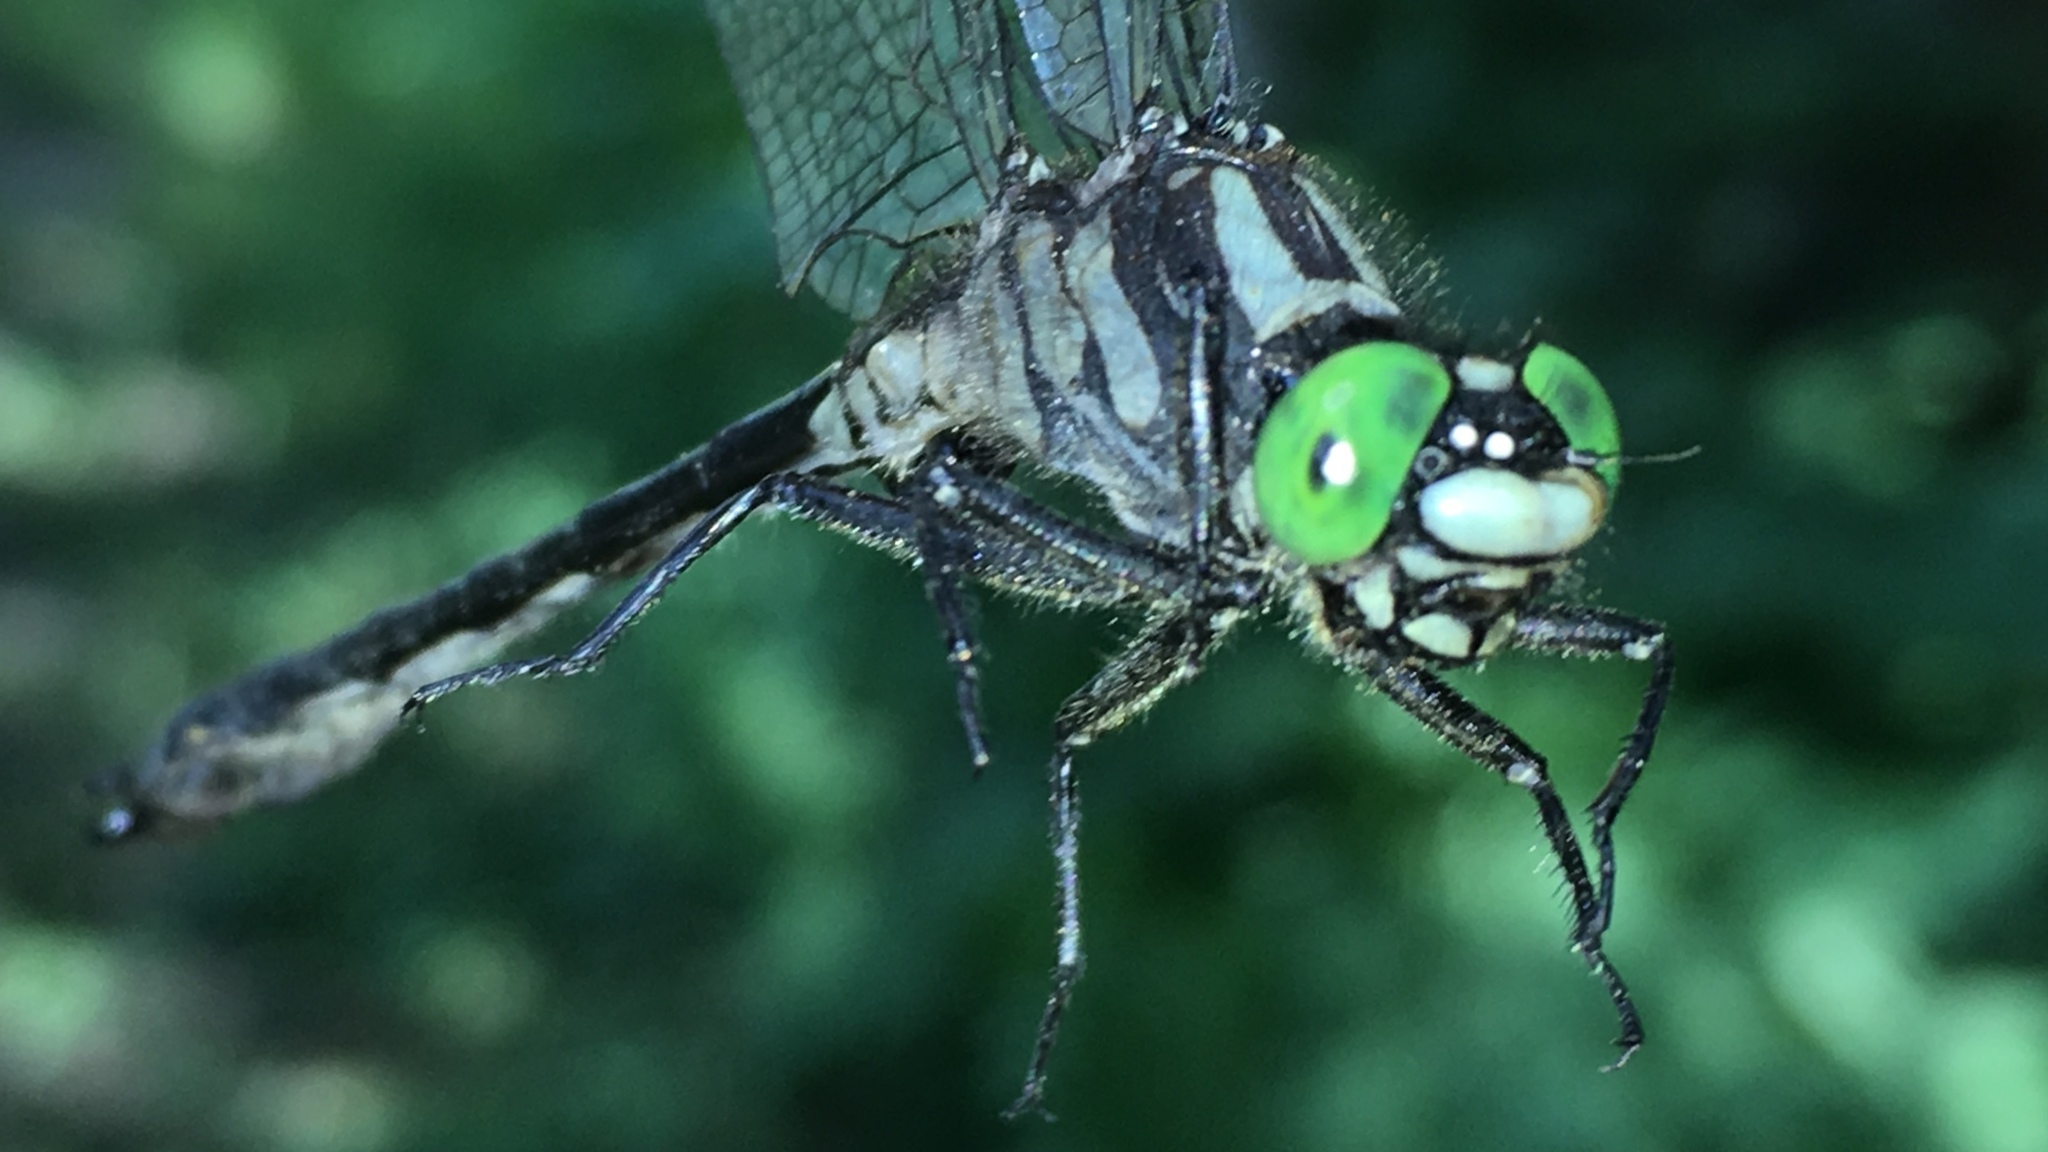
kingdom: Animalia
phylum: Arthropoda
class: Insecta
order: Odonata
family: Gomphidae
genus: Hylogomphus
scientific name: Hylogomphus adelphus
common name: Mustached clubtail
